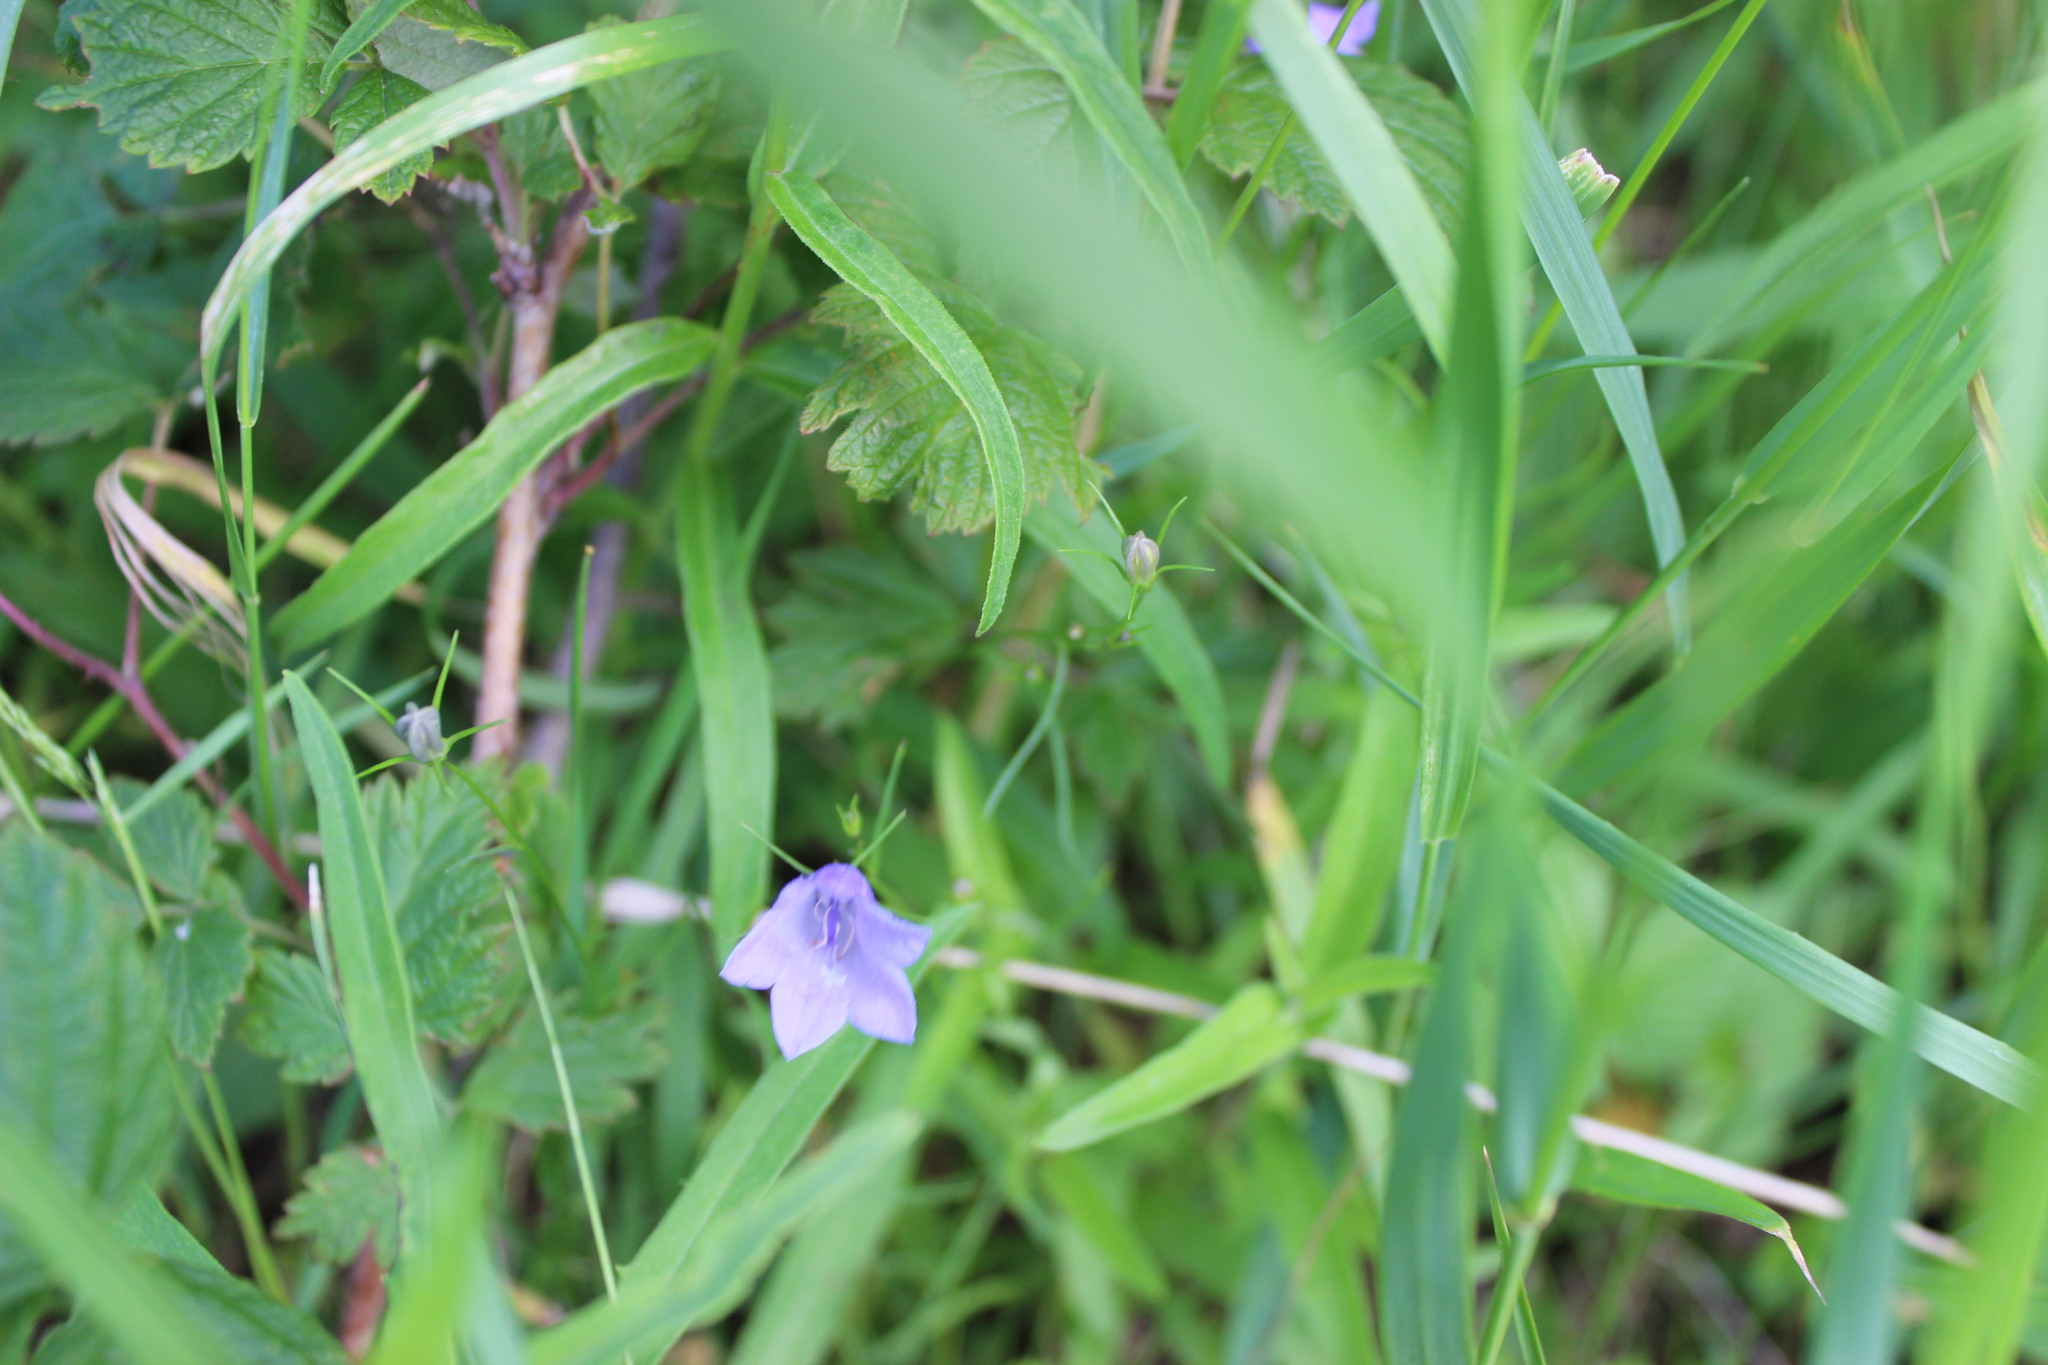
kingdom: Plantae
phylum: Tracheophyta
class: Magnoliopsida
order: Asterales
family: Campanulaceae
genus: Campanula
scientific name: Campanula rotundifolia
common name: Harebell
